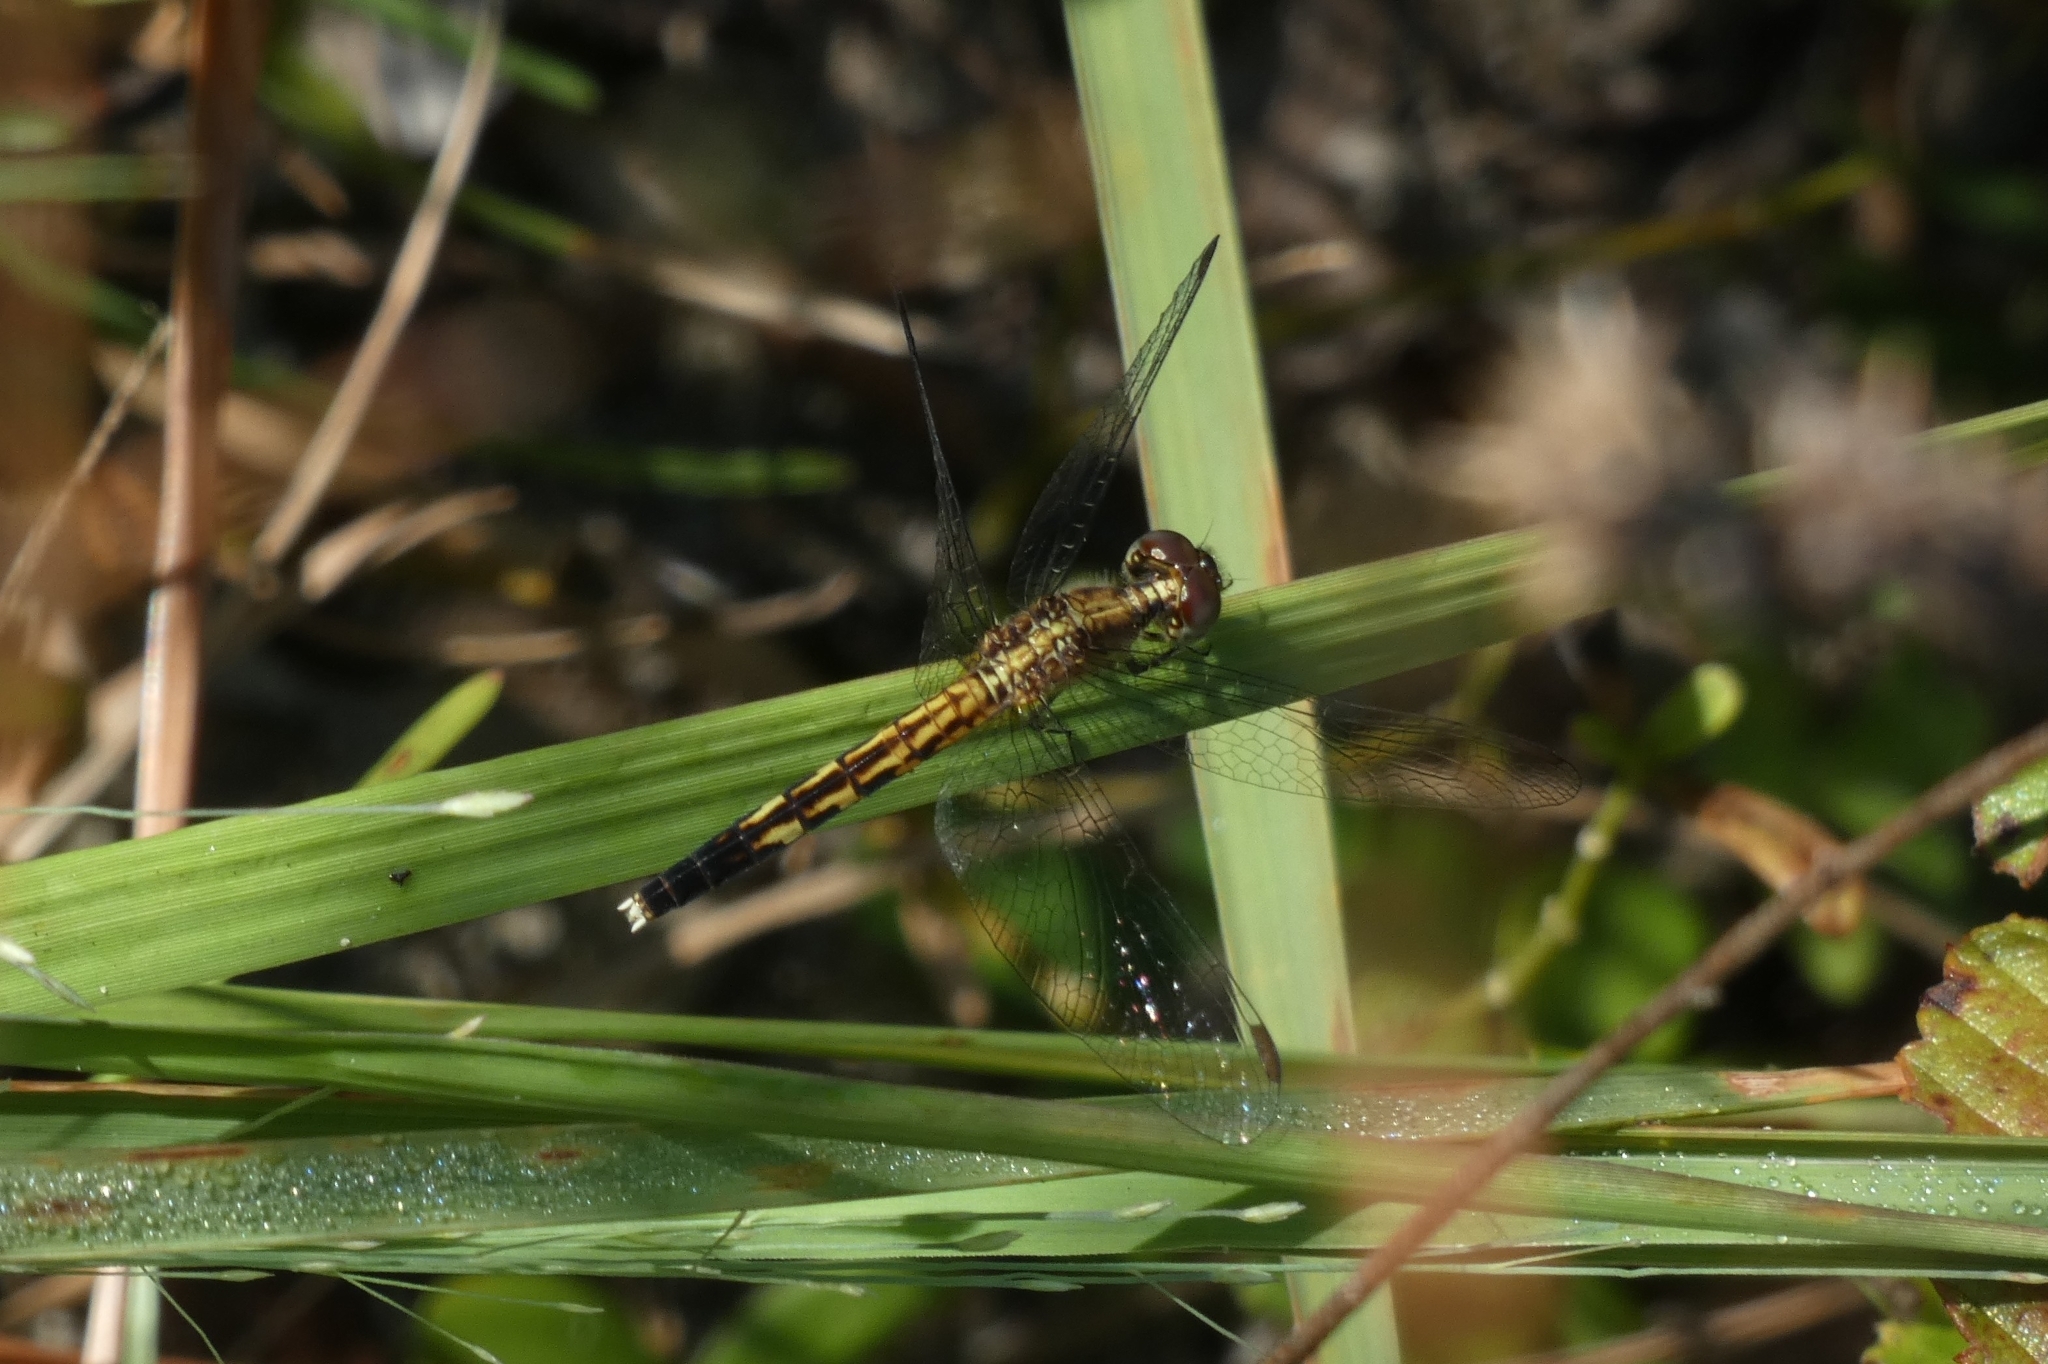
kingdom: Animalia
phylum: Arthropoda
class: Insecta
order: Odonata
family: Libellulidae
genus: Erythrodiplax
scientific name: Erythrodiplax minuscula
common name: Little blue dragonlet
